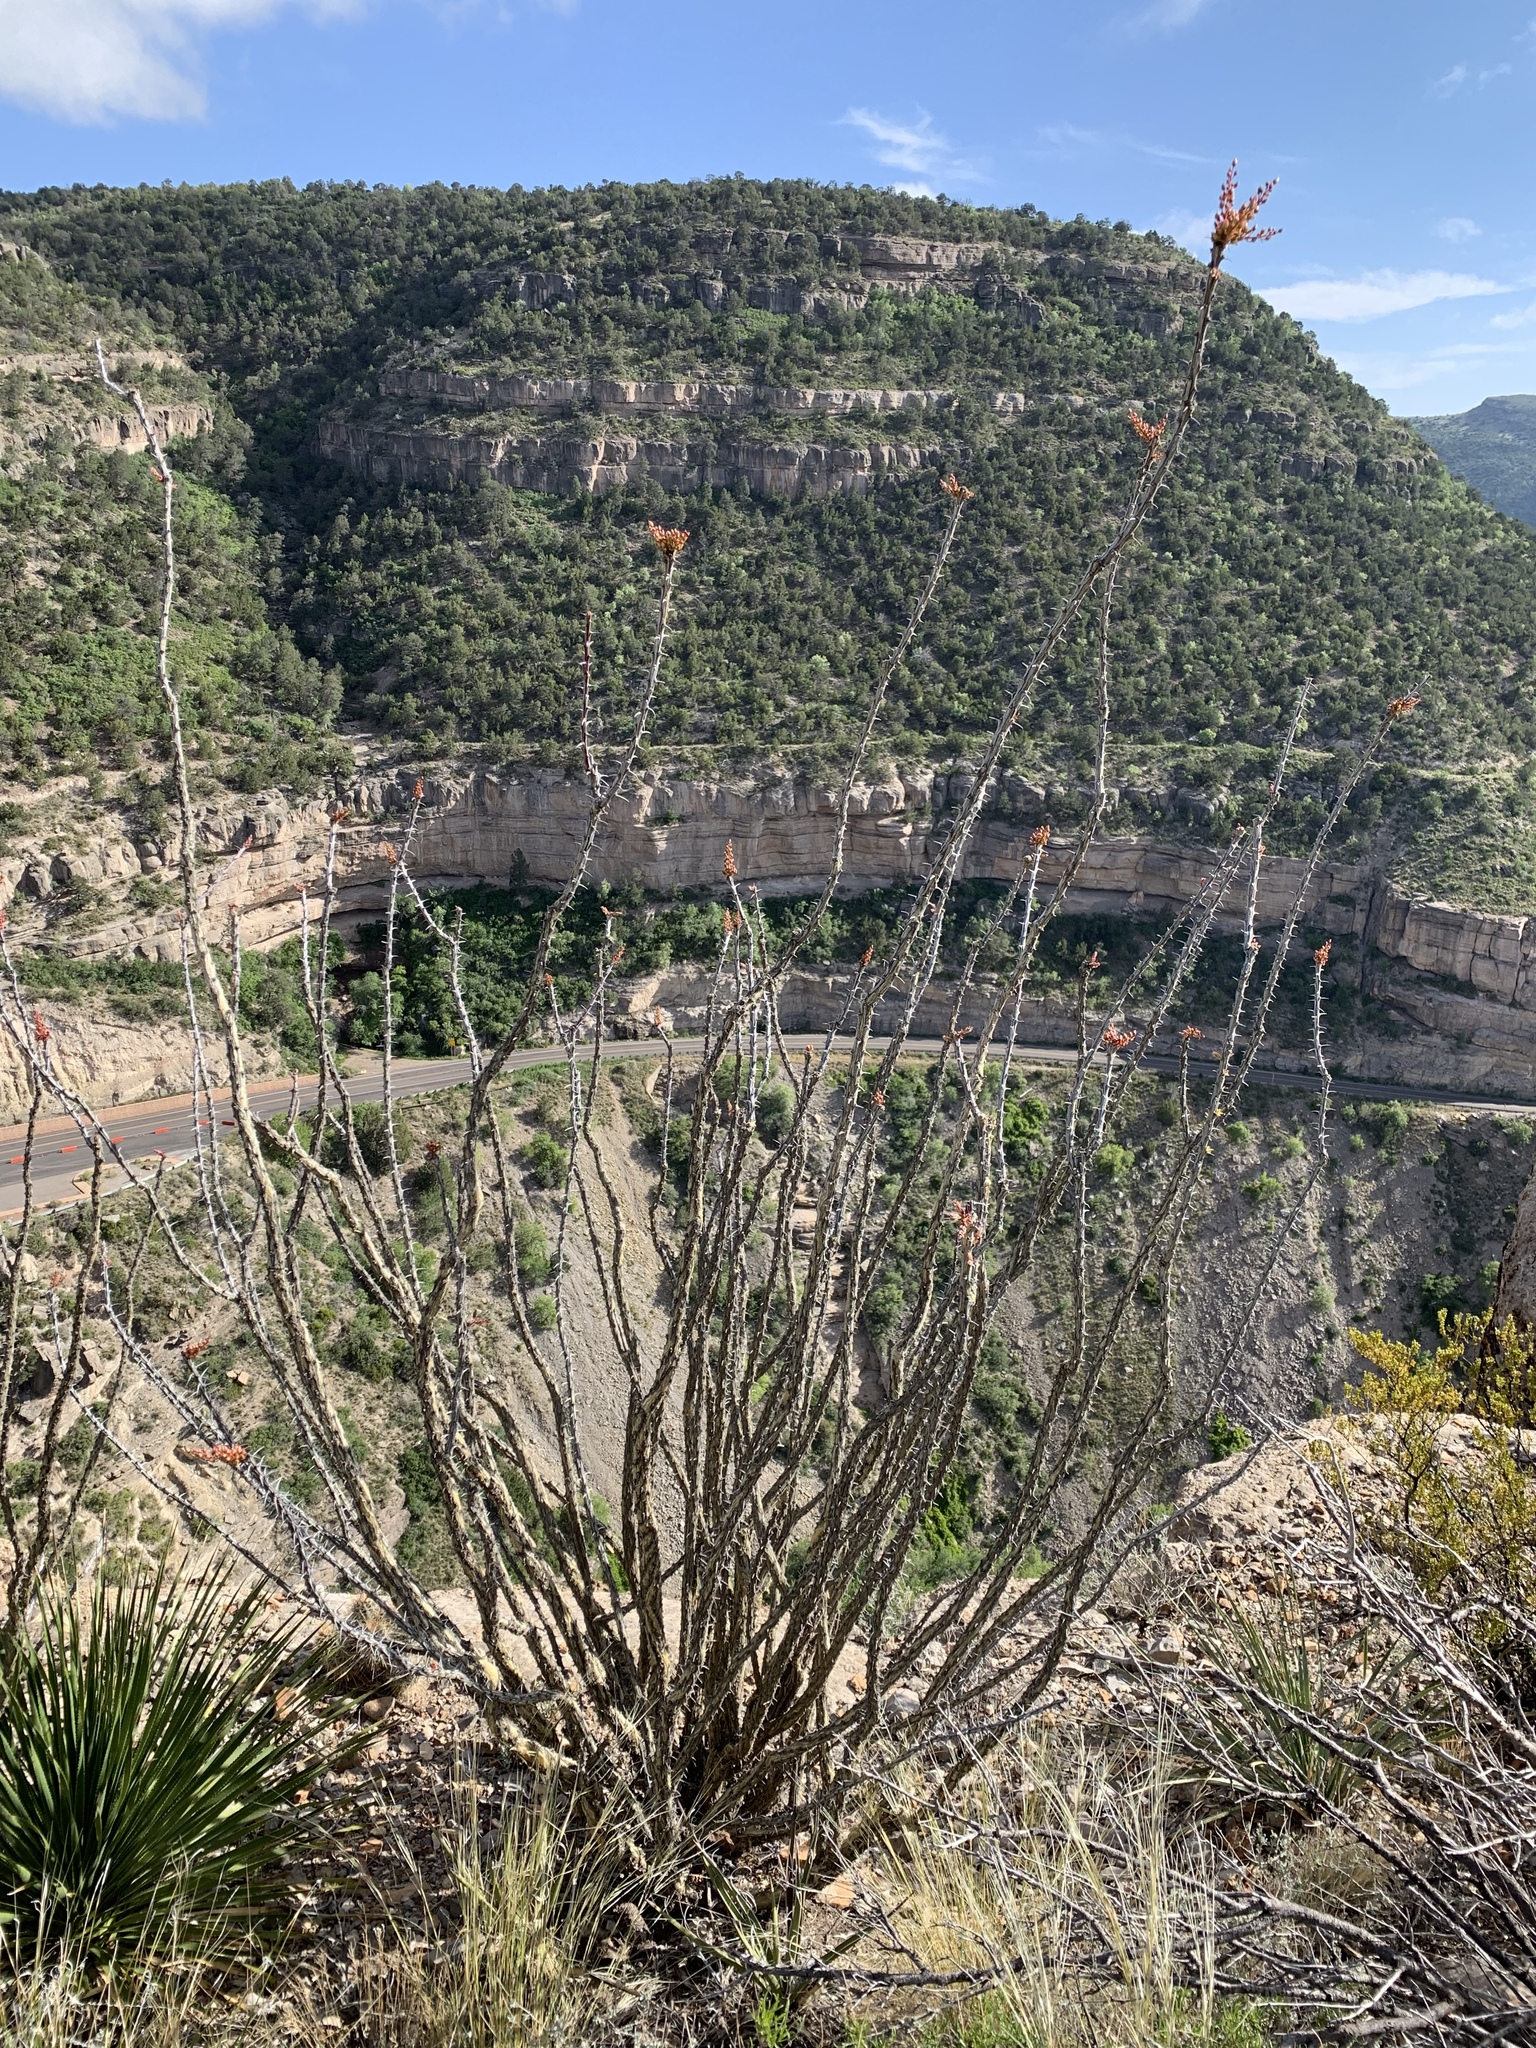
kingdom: Plantae
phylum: Tracheophyta
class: Magnoliopsida
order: Ericales
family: Fouquieriaceae
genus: Fouquieria
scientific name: Fouquieria splendens
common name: Vine-cactus
